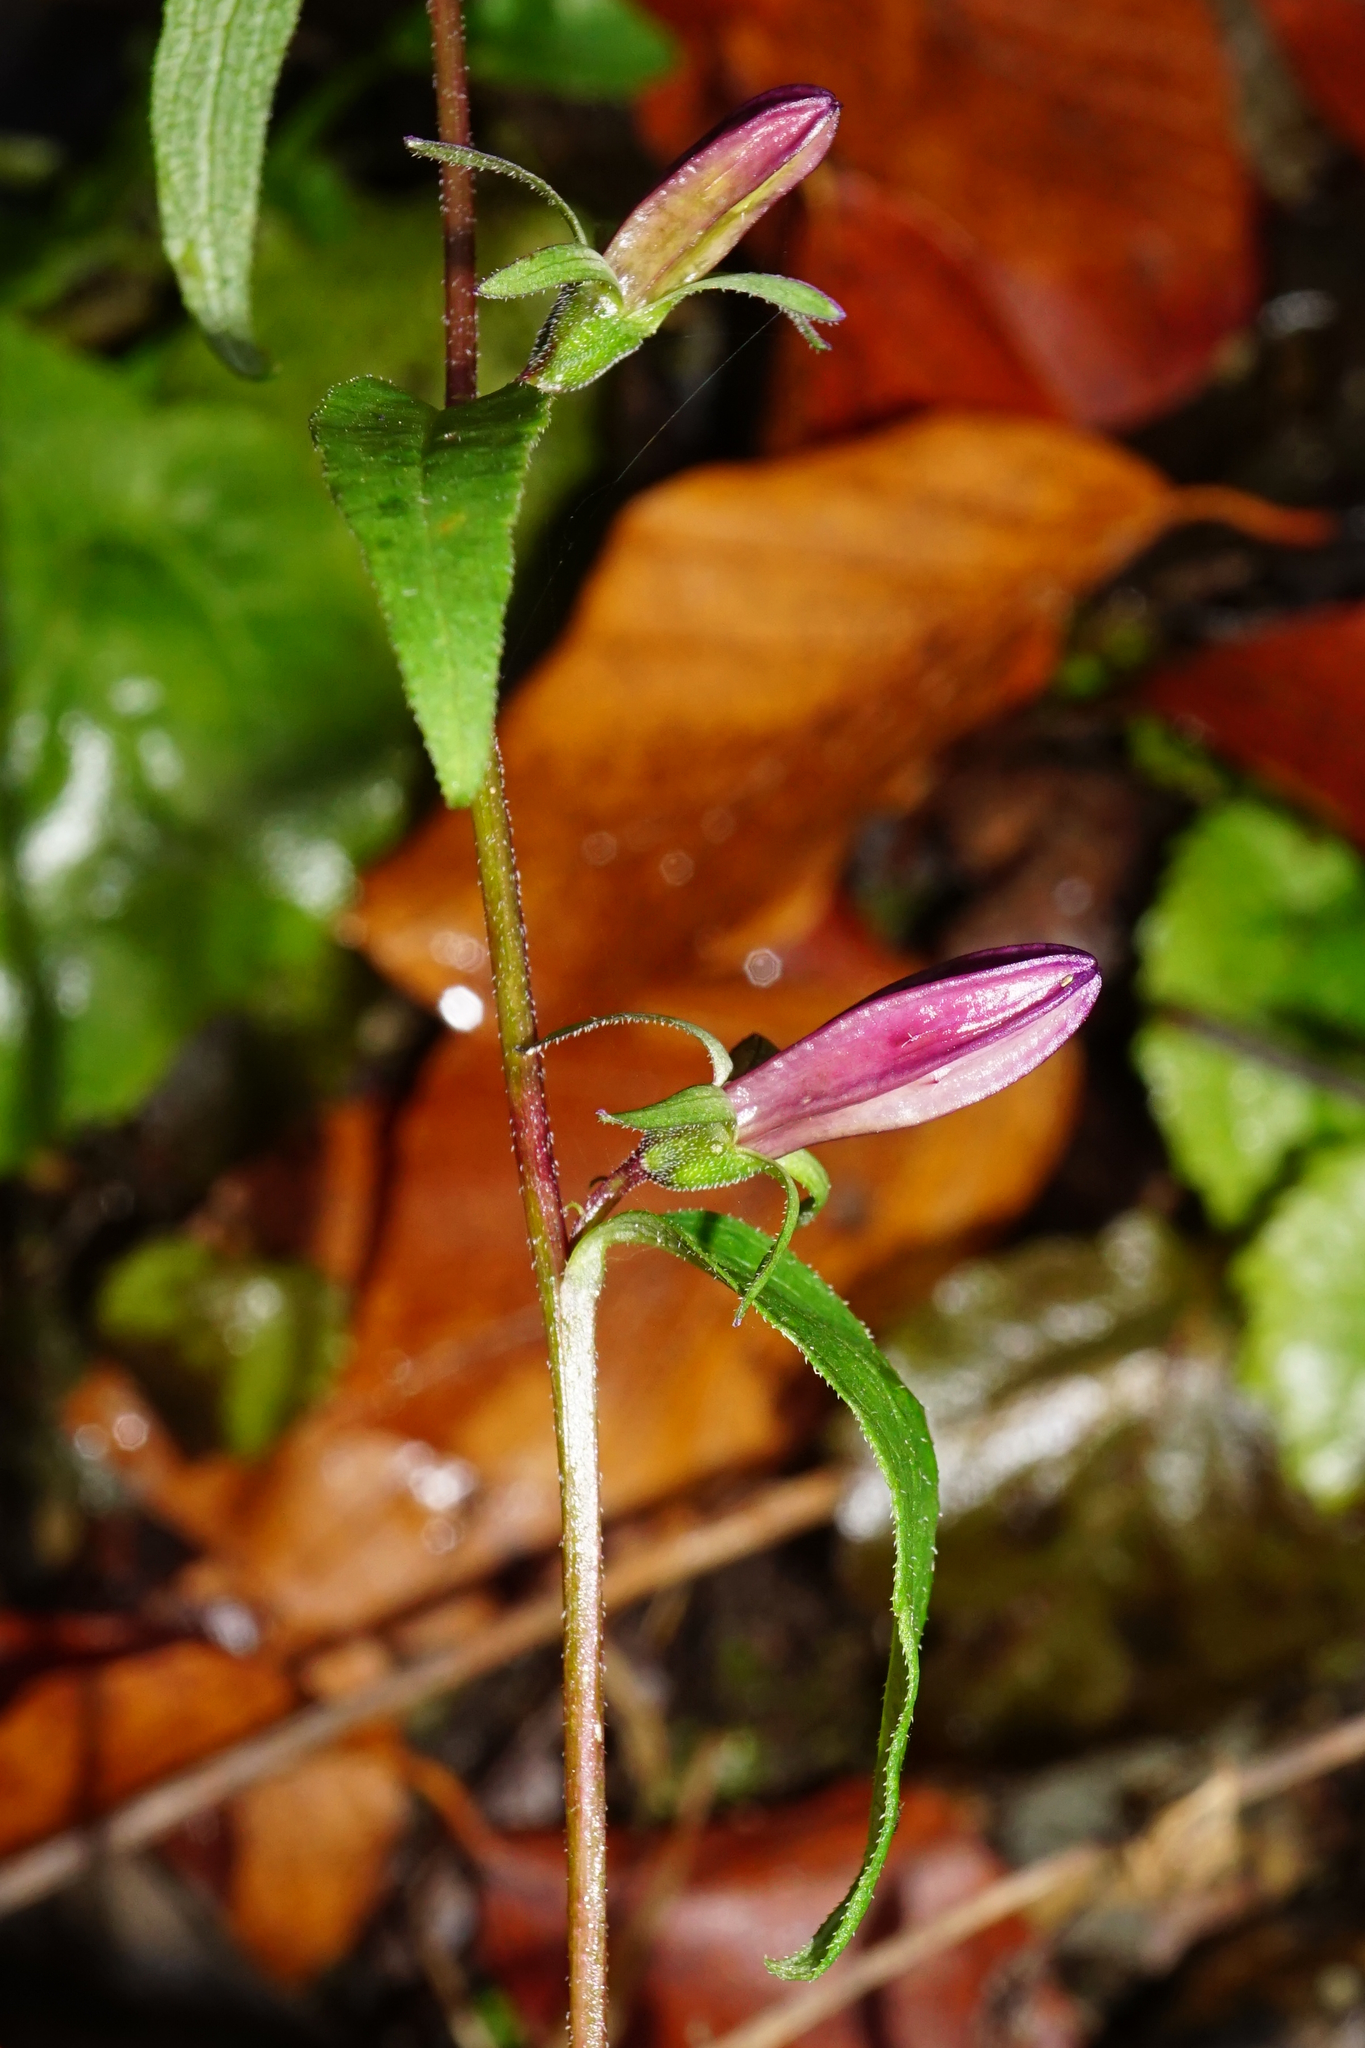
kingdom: Plantae
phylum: Tracheophyta
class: Magnoliopsida
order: Asterales
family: Campanulaceae
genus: Campanula
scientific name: Campanula rapunculoides
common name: Creeping bellflower
